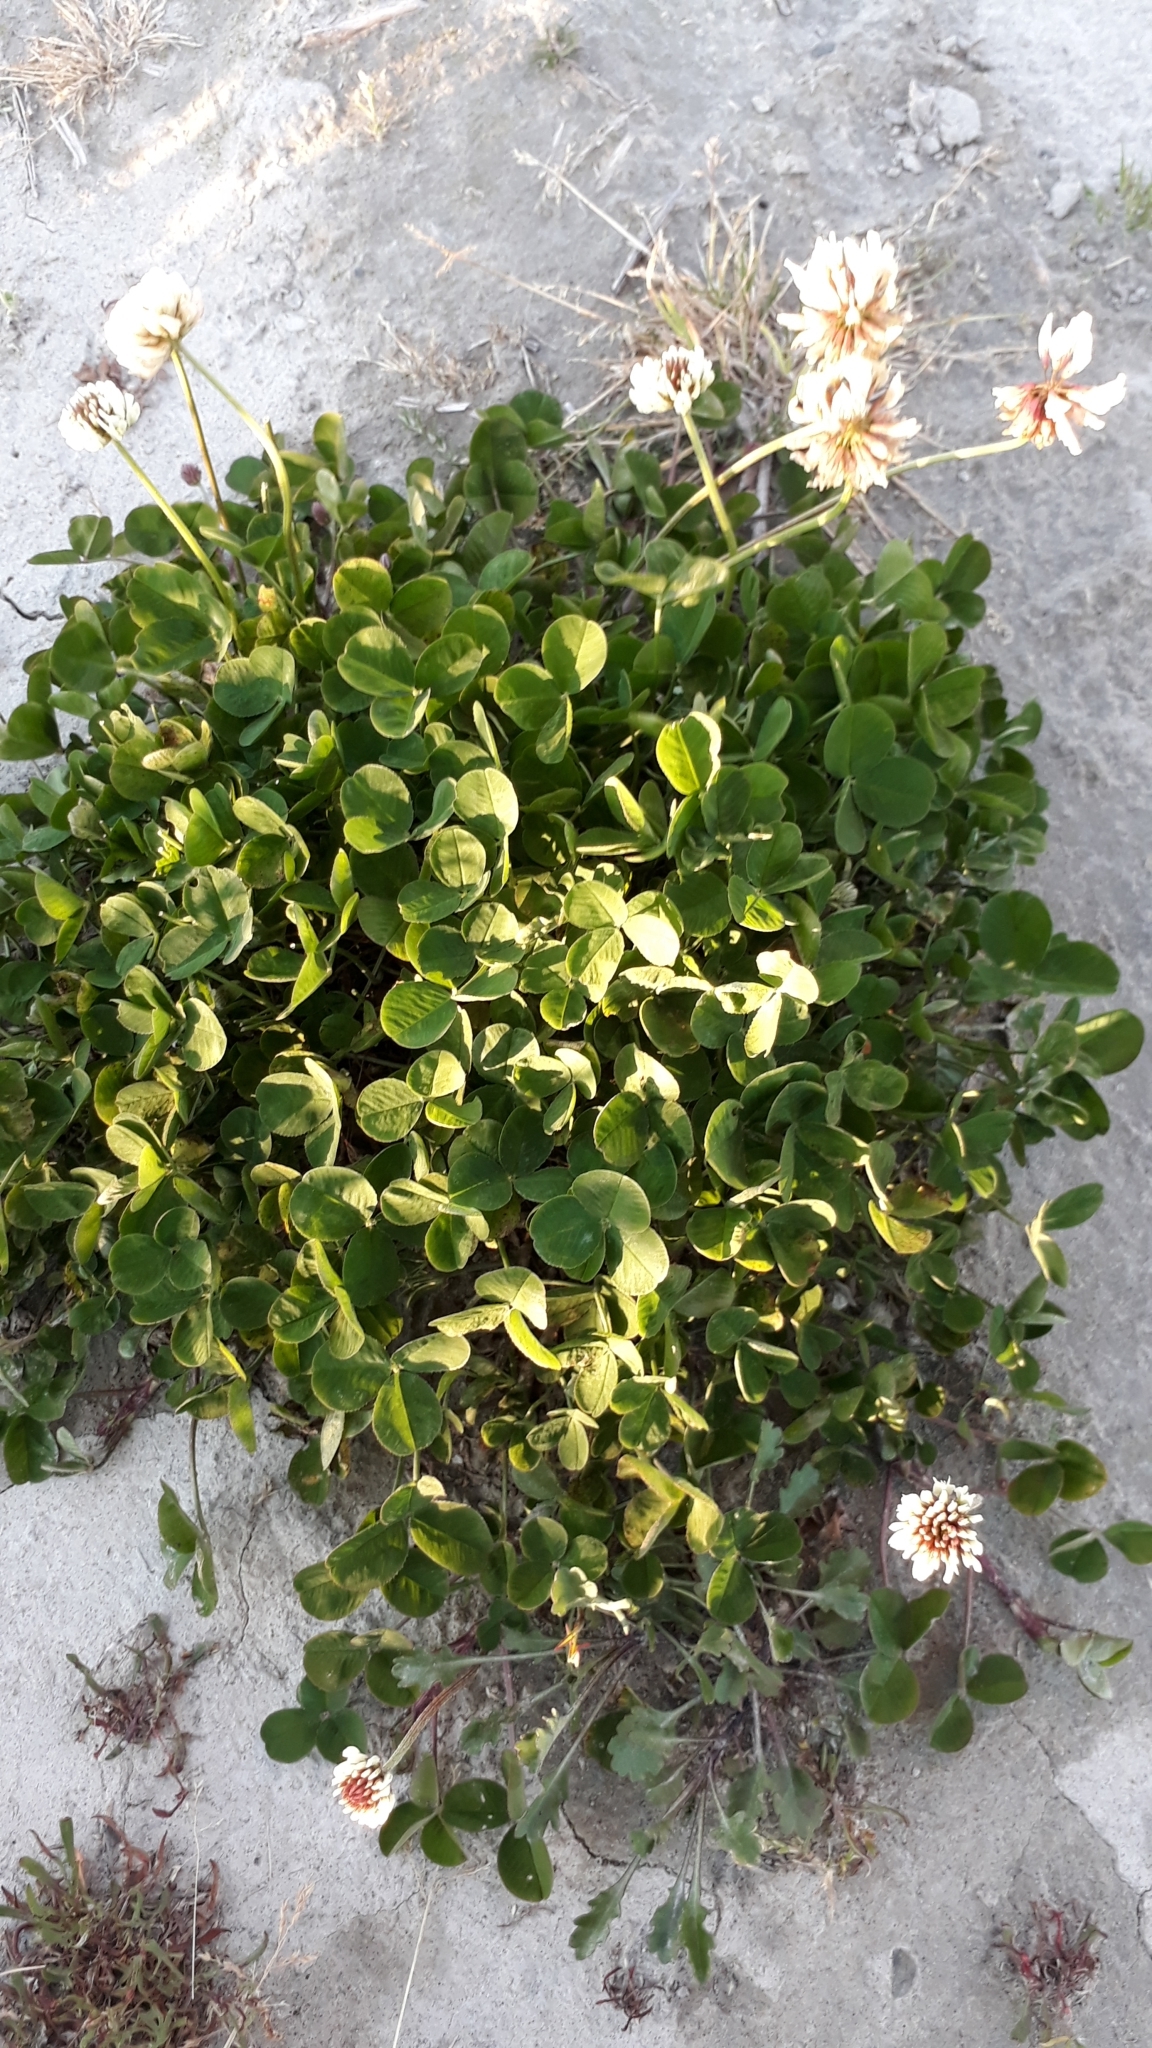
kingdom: Plantae
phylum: Tracheophyta
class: Magnoliopsida
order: Fabales
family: Fabaceae
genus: Trifolium
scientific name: Trifolium repens
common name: White clover
